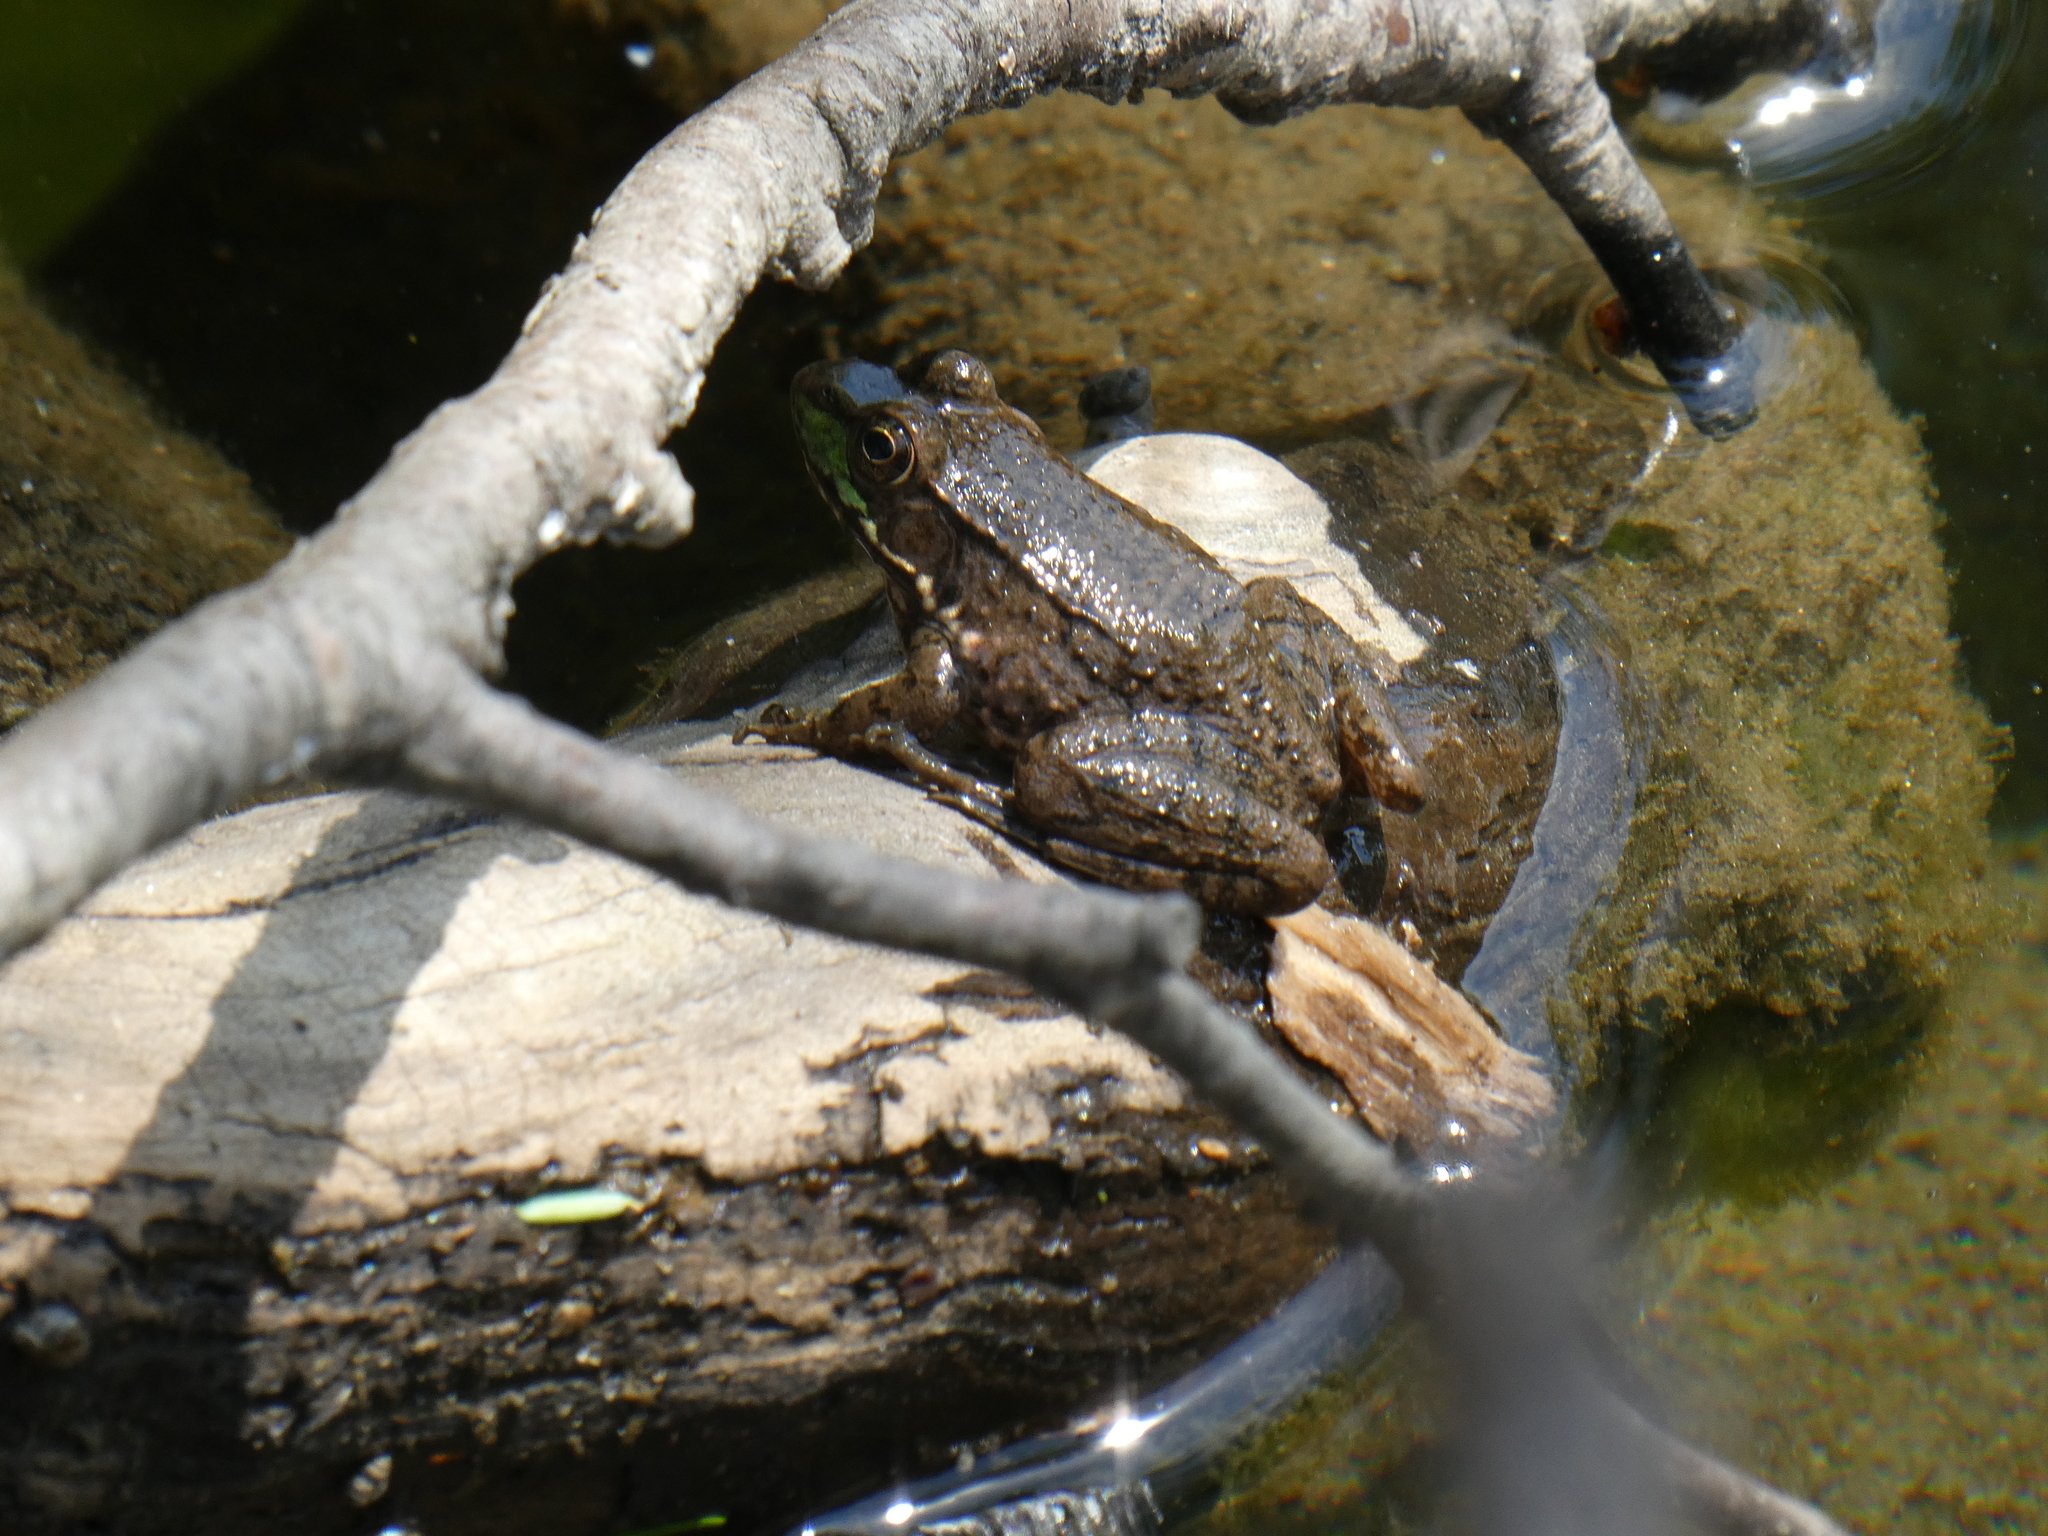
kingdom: Animalia
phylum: Chordata
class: Amphibia
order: Anura
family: Ranidae
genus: Lithobates
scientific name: Lithobates clamitans
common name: Green frog
